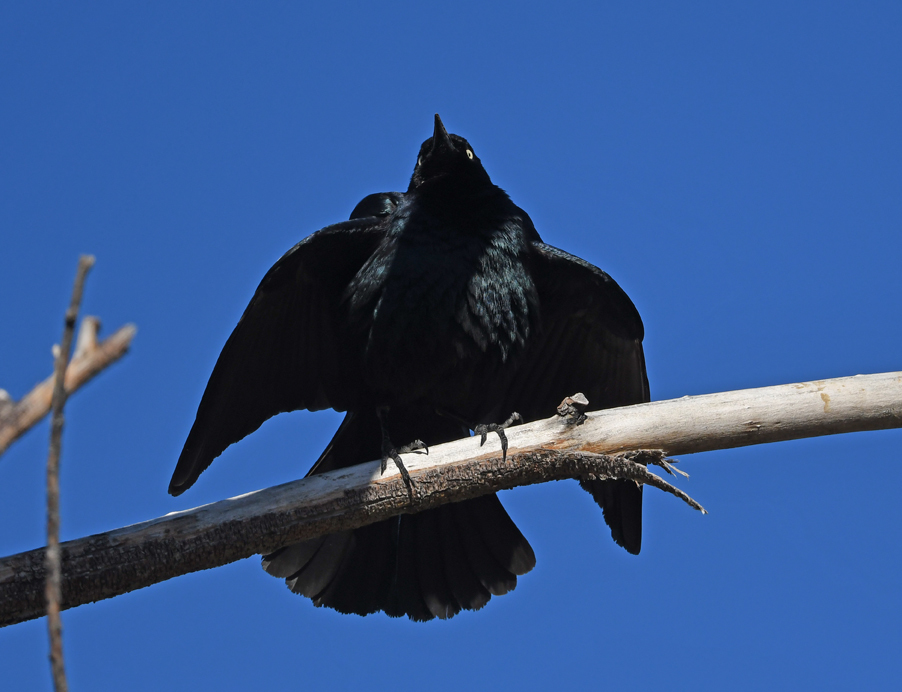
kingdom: Animalia
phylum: Chordata
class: Aves
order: Passeriformes
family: Icteridae
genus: Euphagus
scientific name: Euphagus cyanocephalus
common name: Brewer's blackbird
